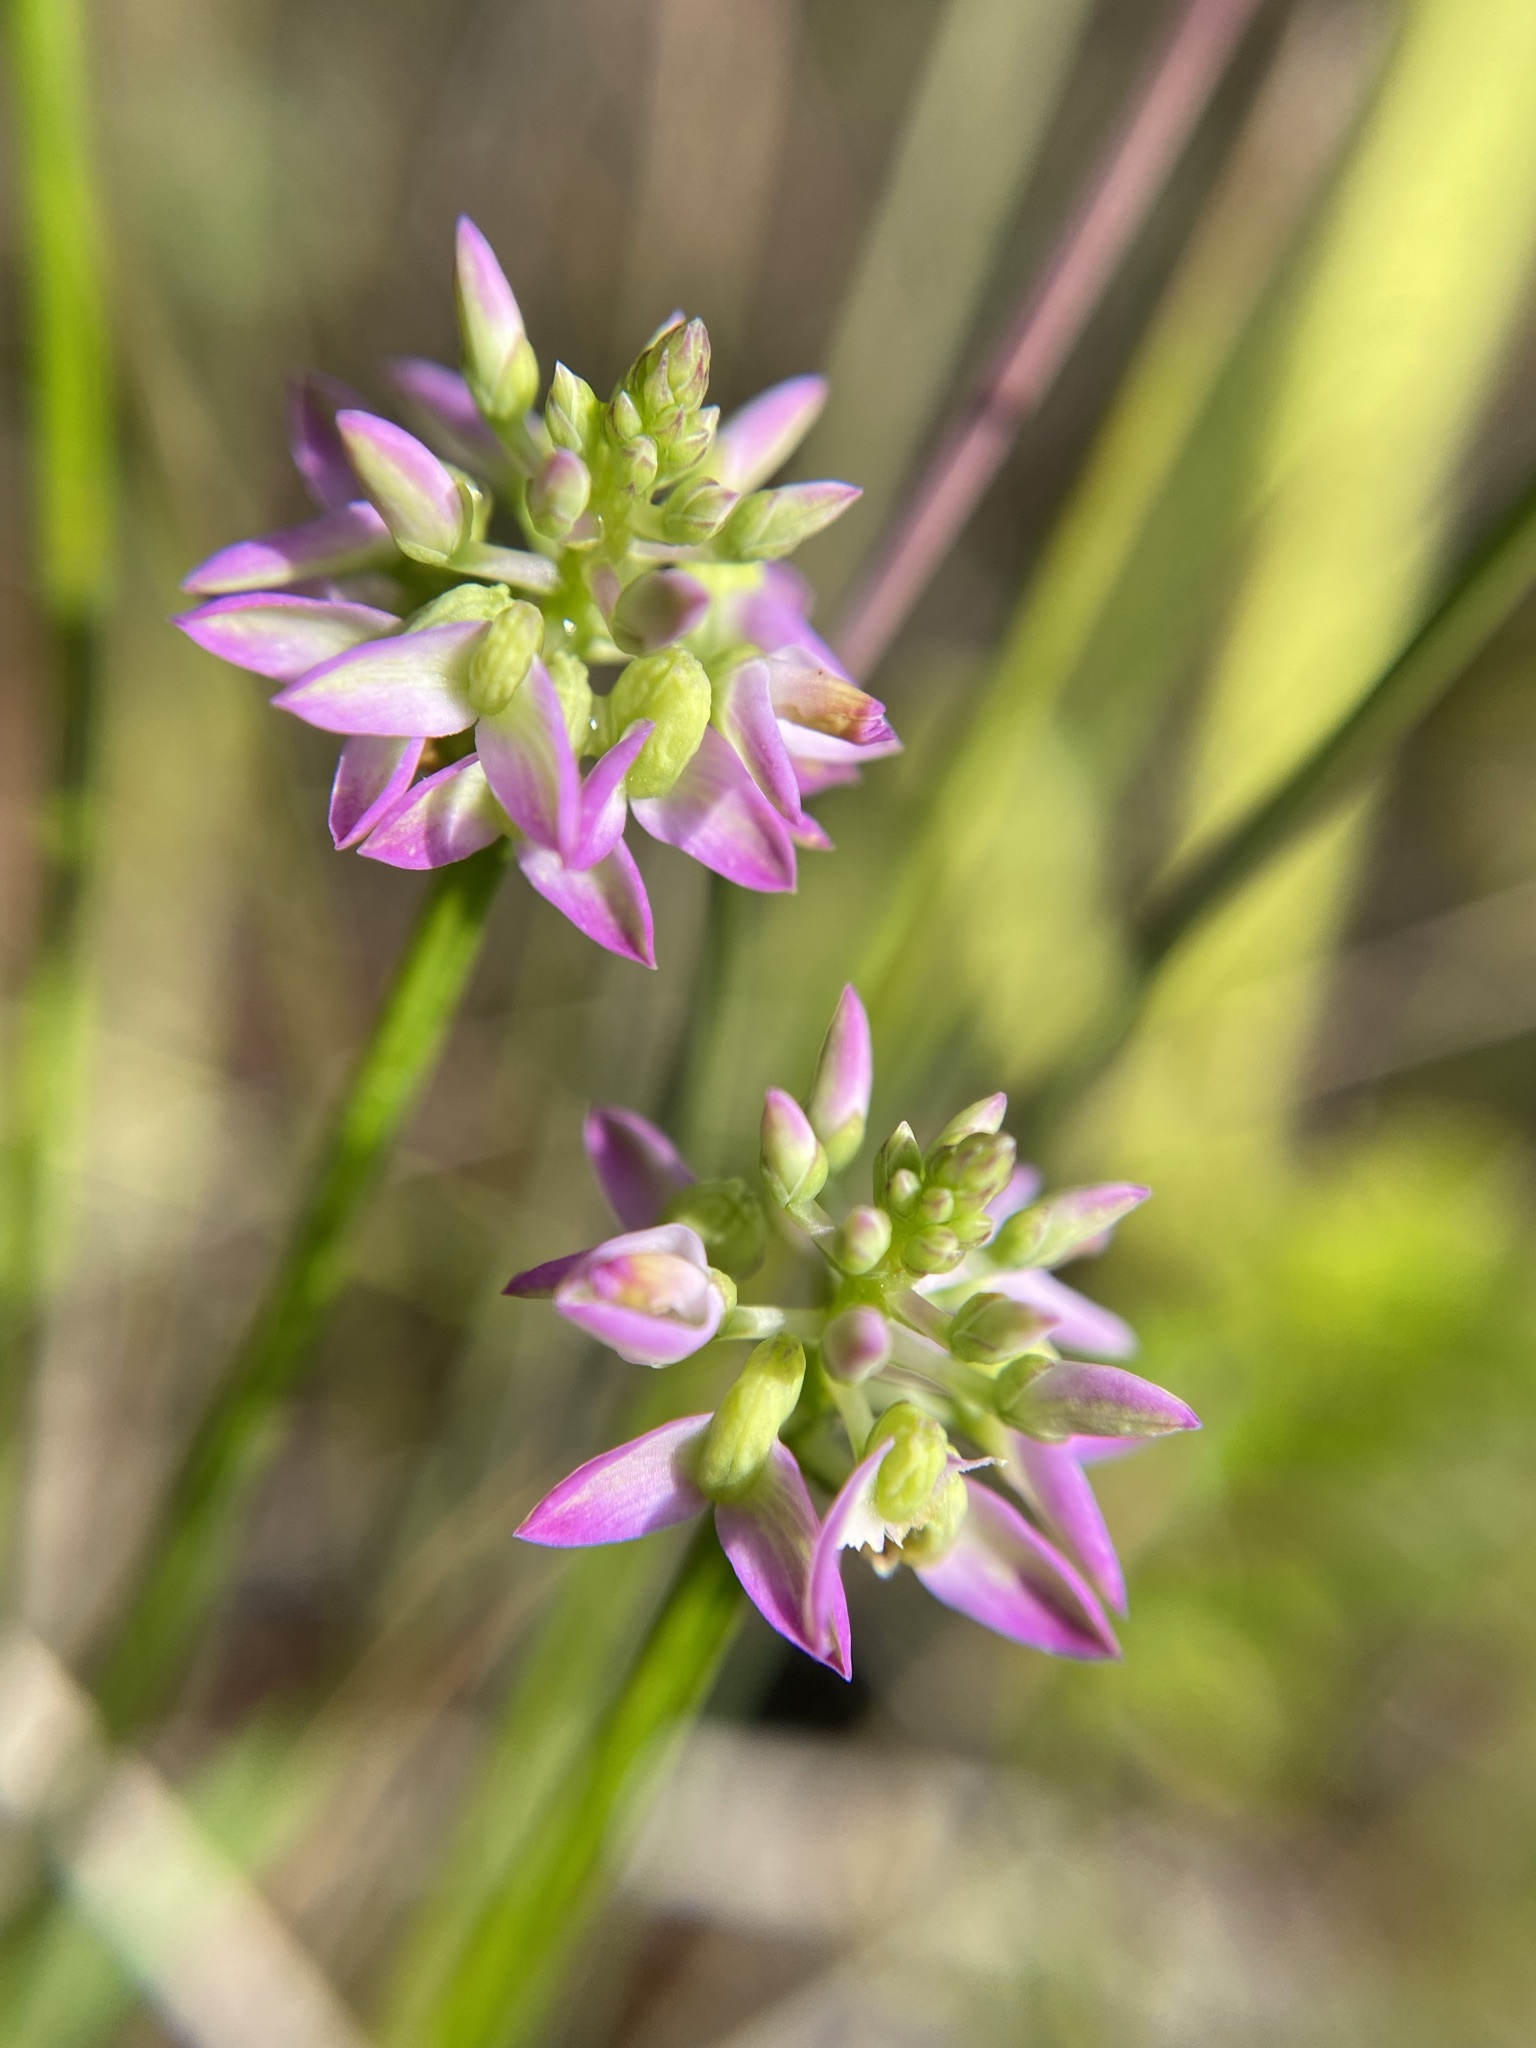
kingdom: Plantae
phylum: Tracheophyta
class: Magnoliopsida
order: Fabales
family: Polygalaceae
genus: Polygala
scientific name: Polygala brevifolia
